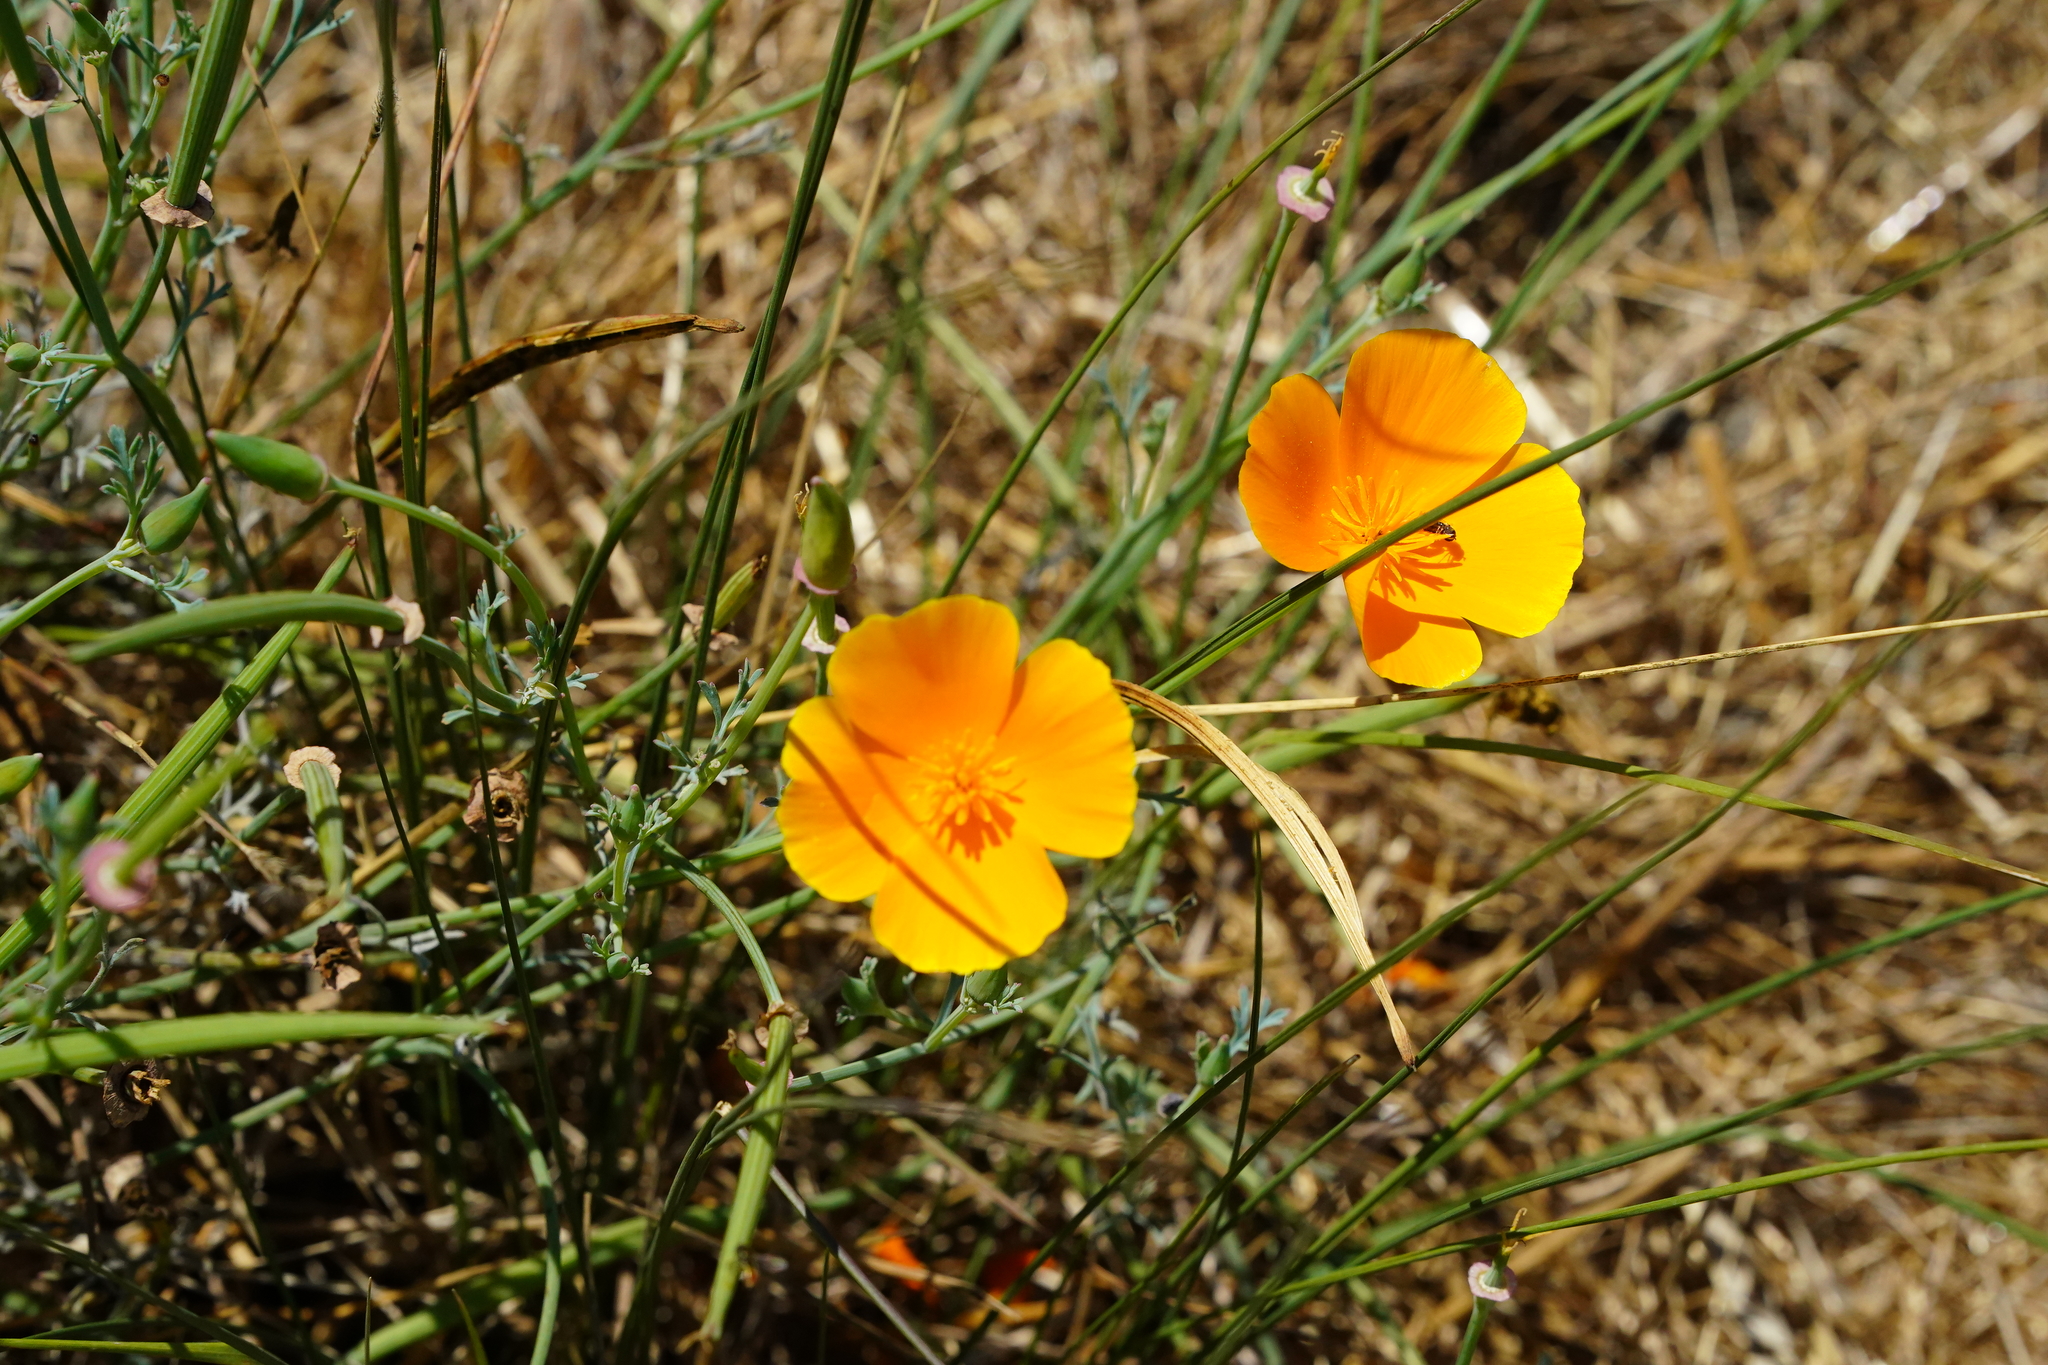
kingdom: Plantae
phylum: Tracheophyta
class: Magnoliopsida
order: Ranunculales
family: Papaveraceae
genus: Eschscholzia
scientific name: Eschscholzia californica
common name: California poppy
